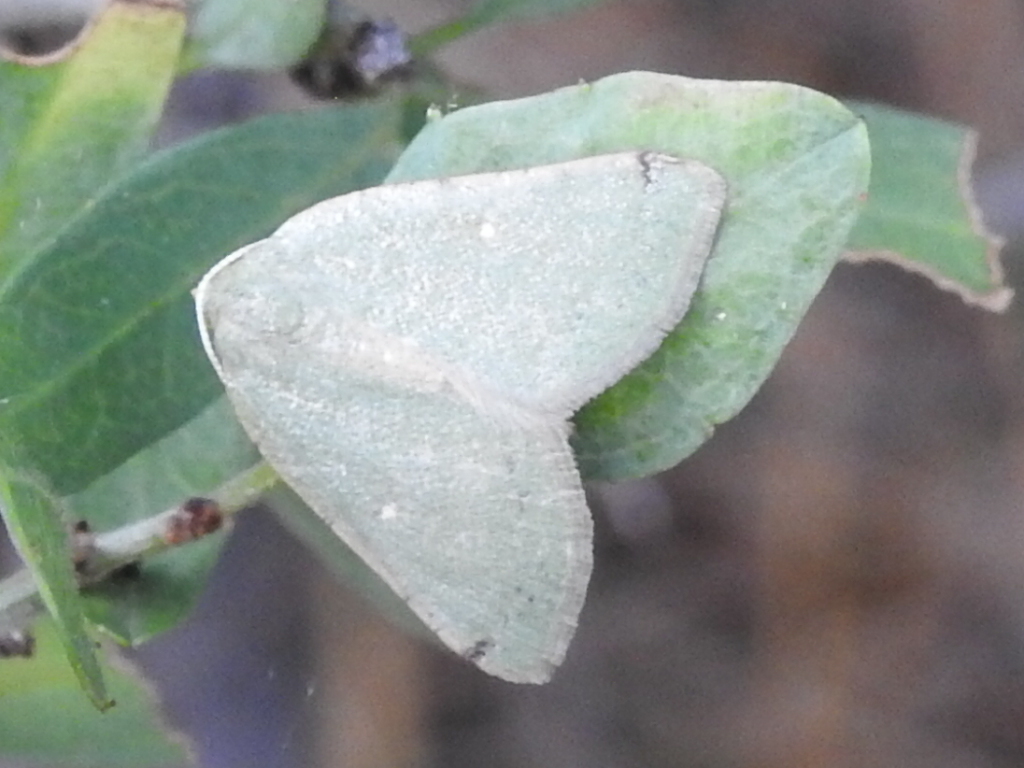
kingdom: Animalia
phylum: Arthropoda
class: Insecta
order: Lepidoptera
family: Geometridae
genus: Chloraspilates
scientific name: Chloraspilates bicoloraria
